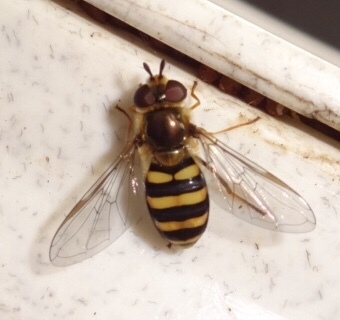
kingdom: Animalia
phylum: Arthropoda
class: Insecta
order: Diptera
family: Syrphidae
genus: Eupeodes
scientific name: Eupeodes
